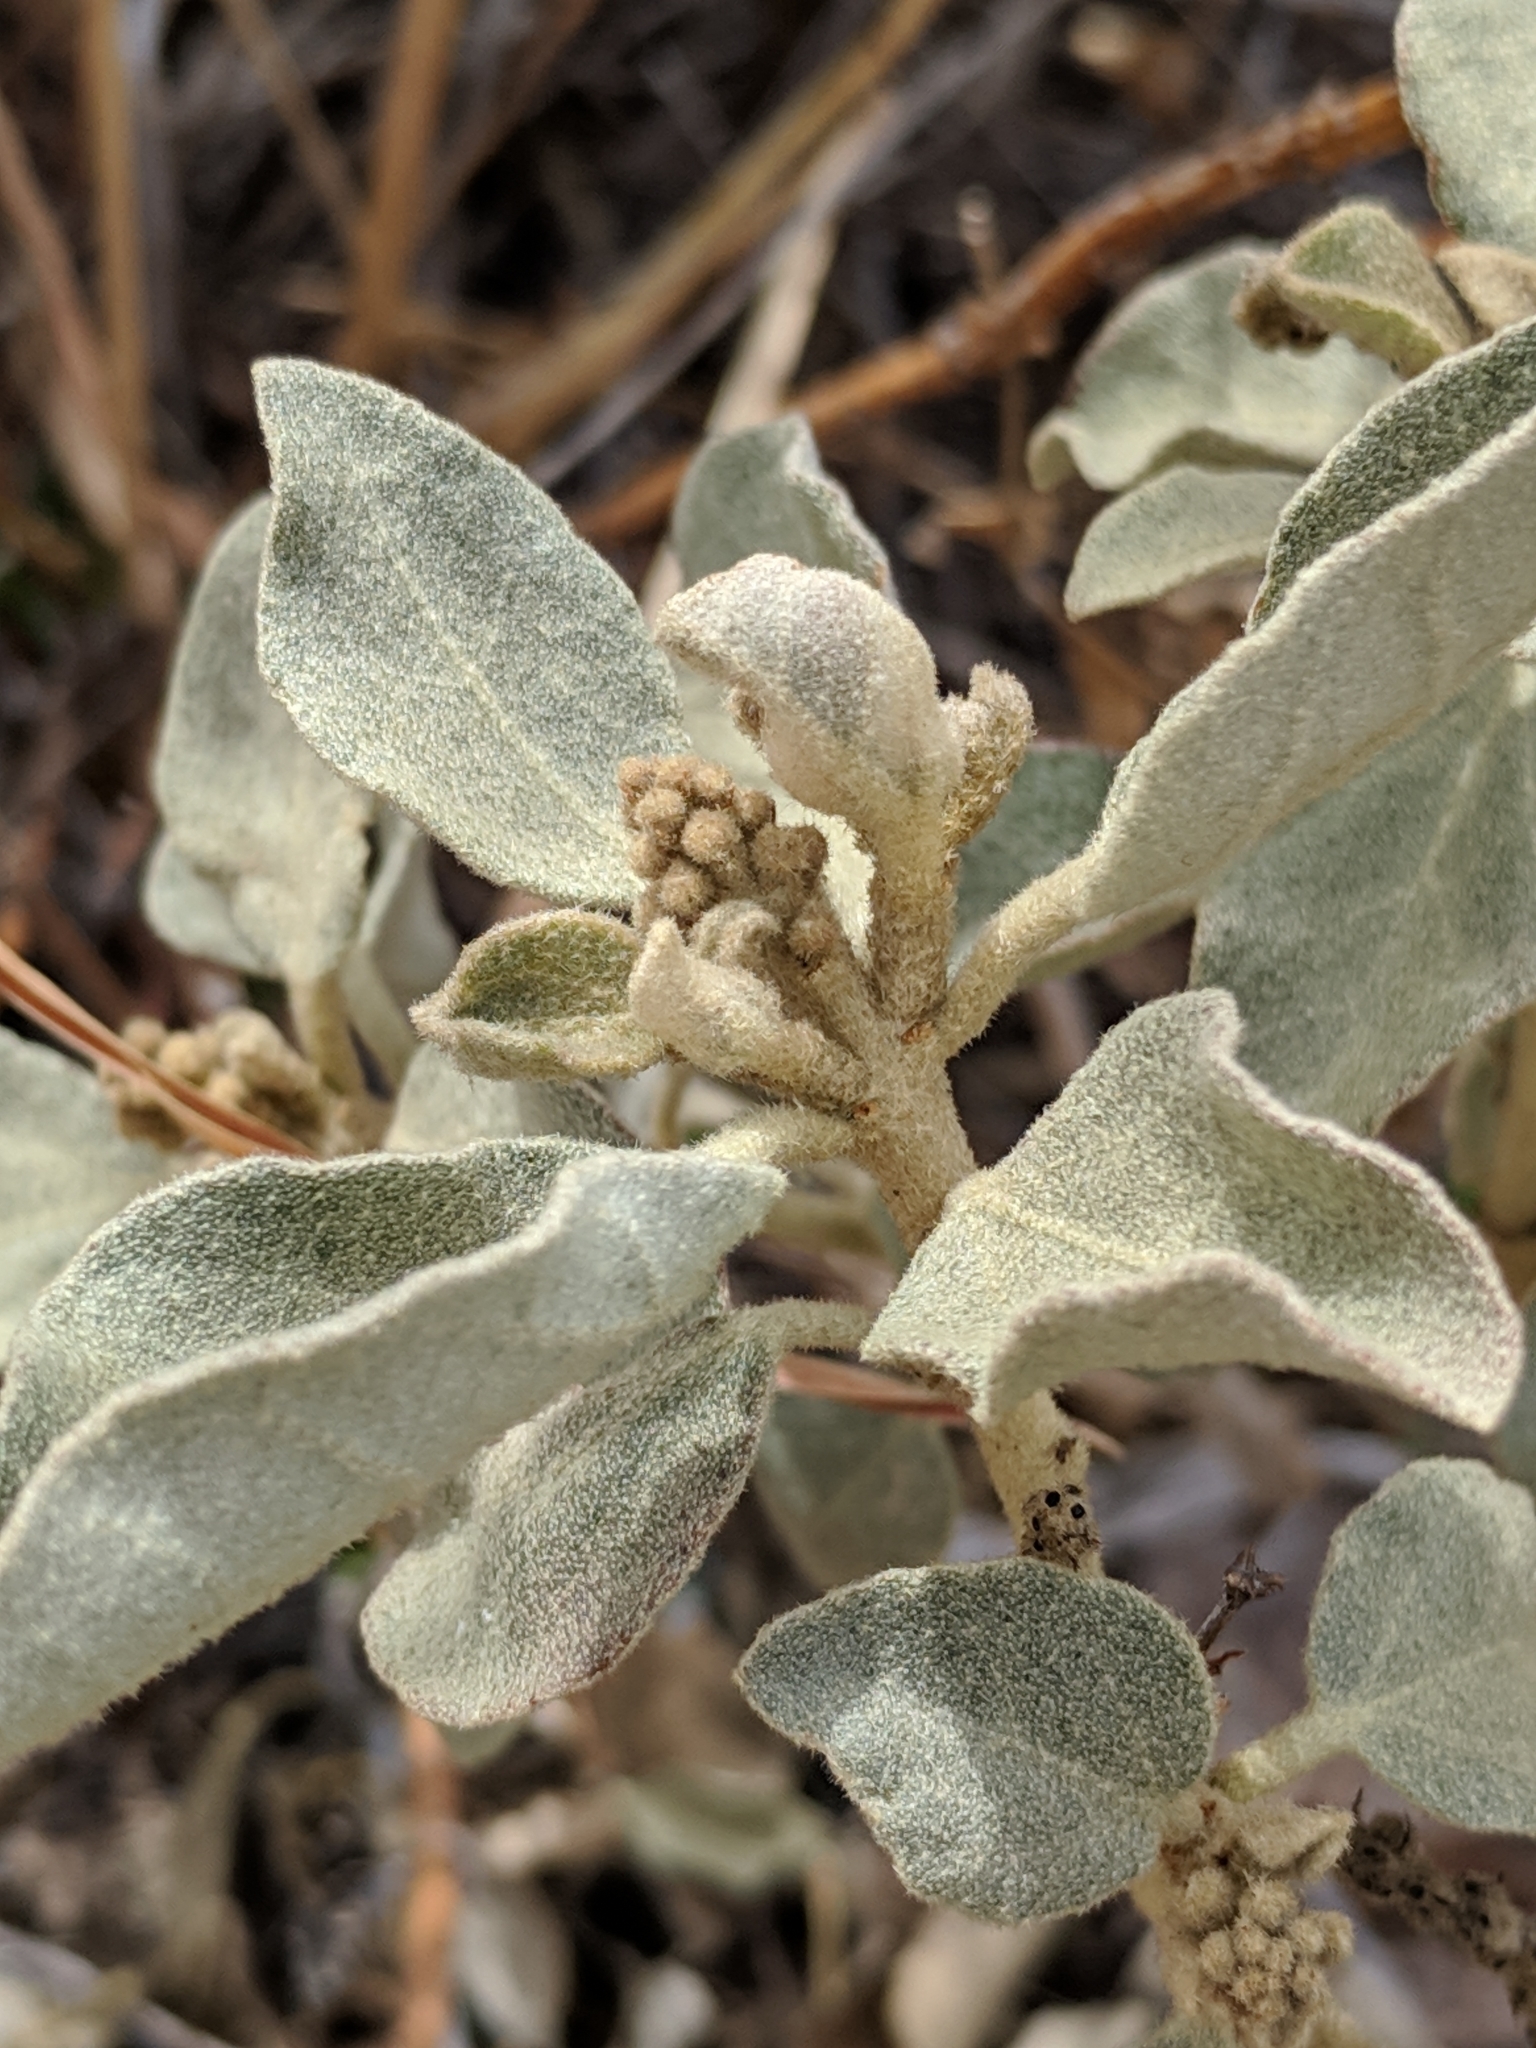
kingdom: Plantae
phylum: Tracheophyta
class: Magnoliopsida
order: Malpighiales
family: Euphorbiaceae
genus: Croton
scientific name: Croton suaveolens
